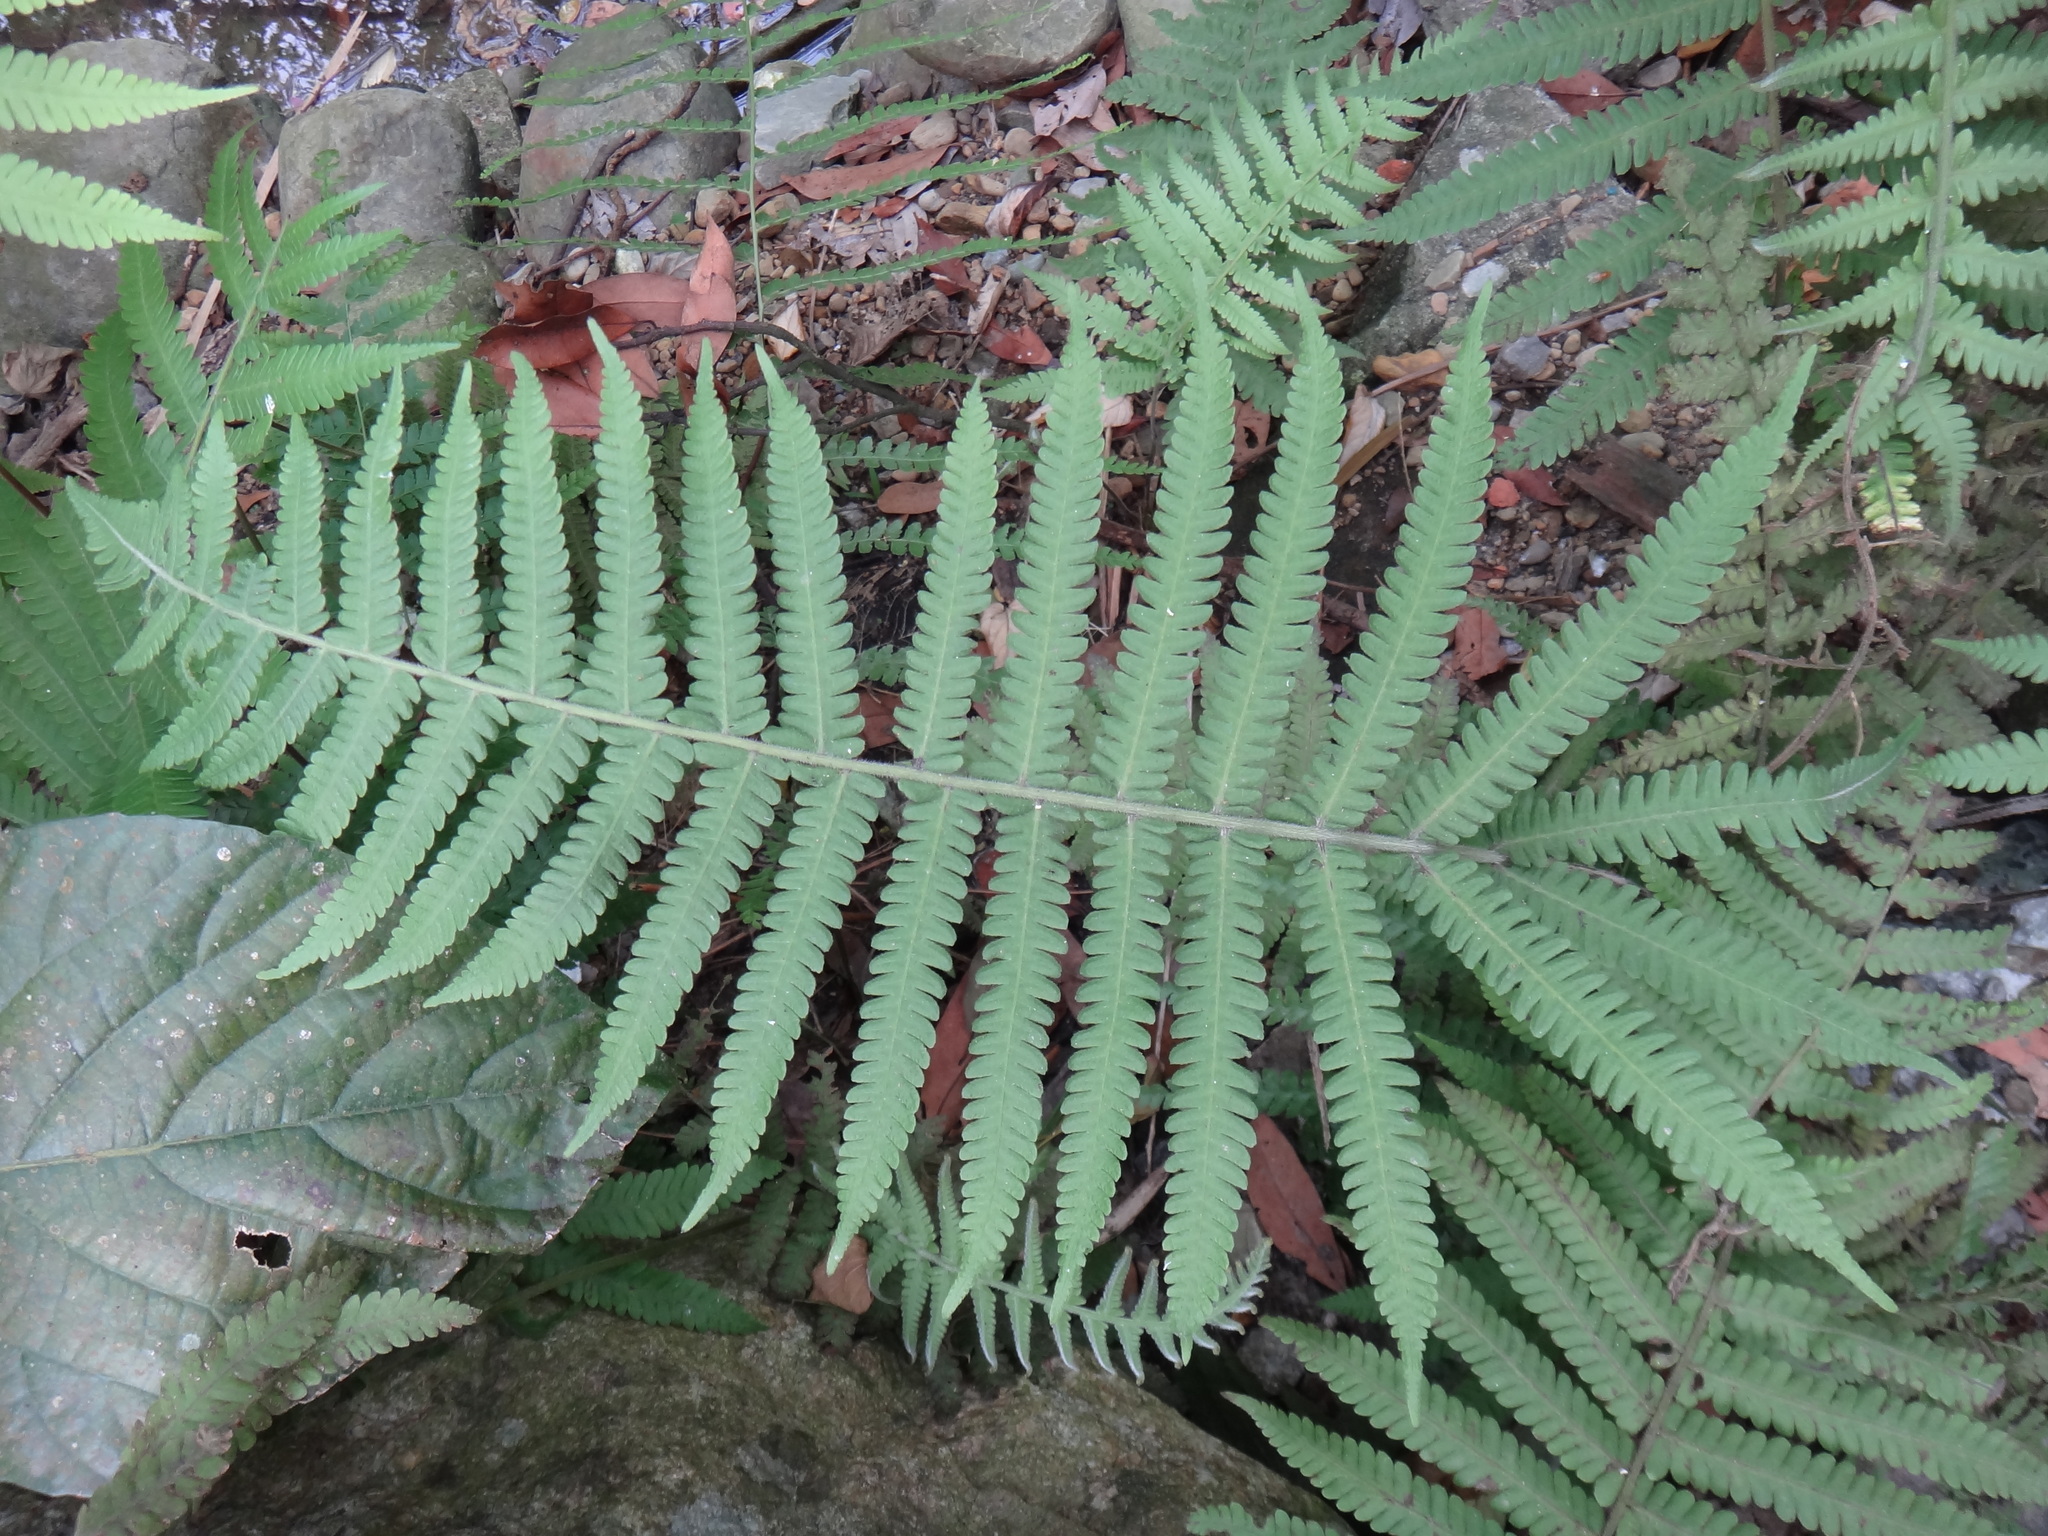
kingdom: Plantae
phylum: Tracheophyta
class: Polypodiopsida
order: Polypodiales
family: Thelypteridaceae
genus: Christella
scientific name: Christella parasitica
